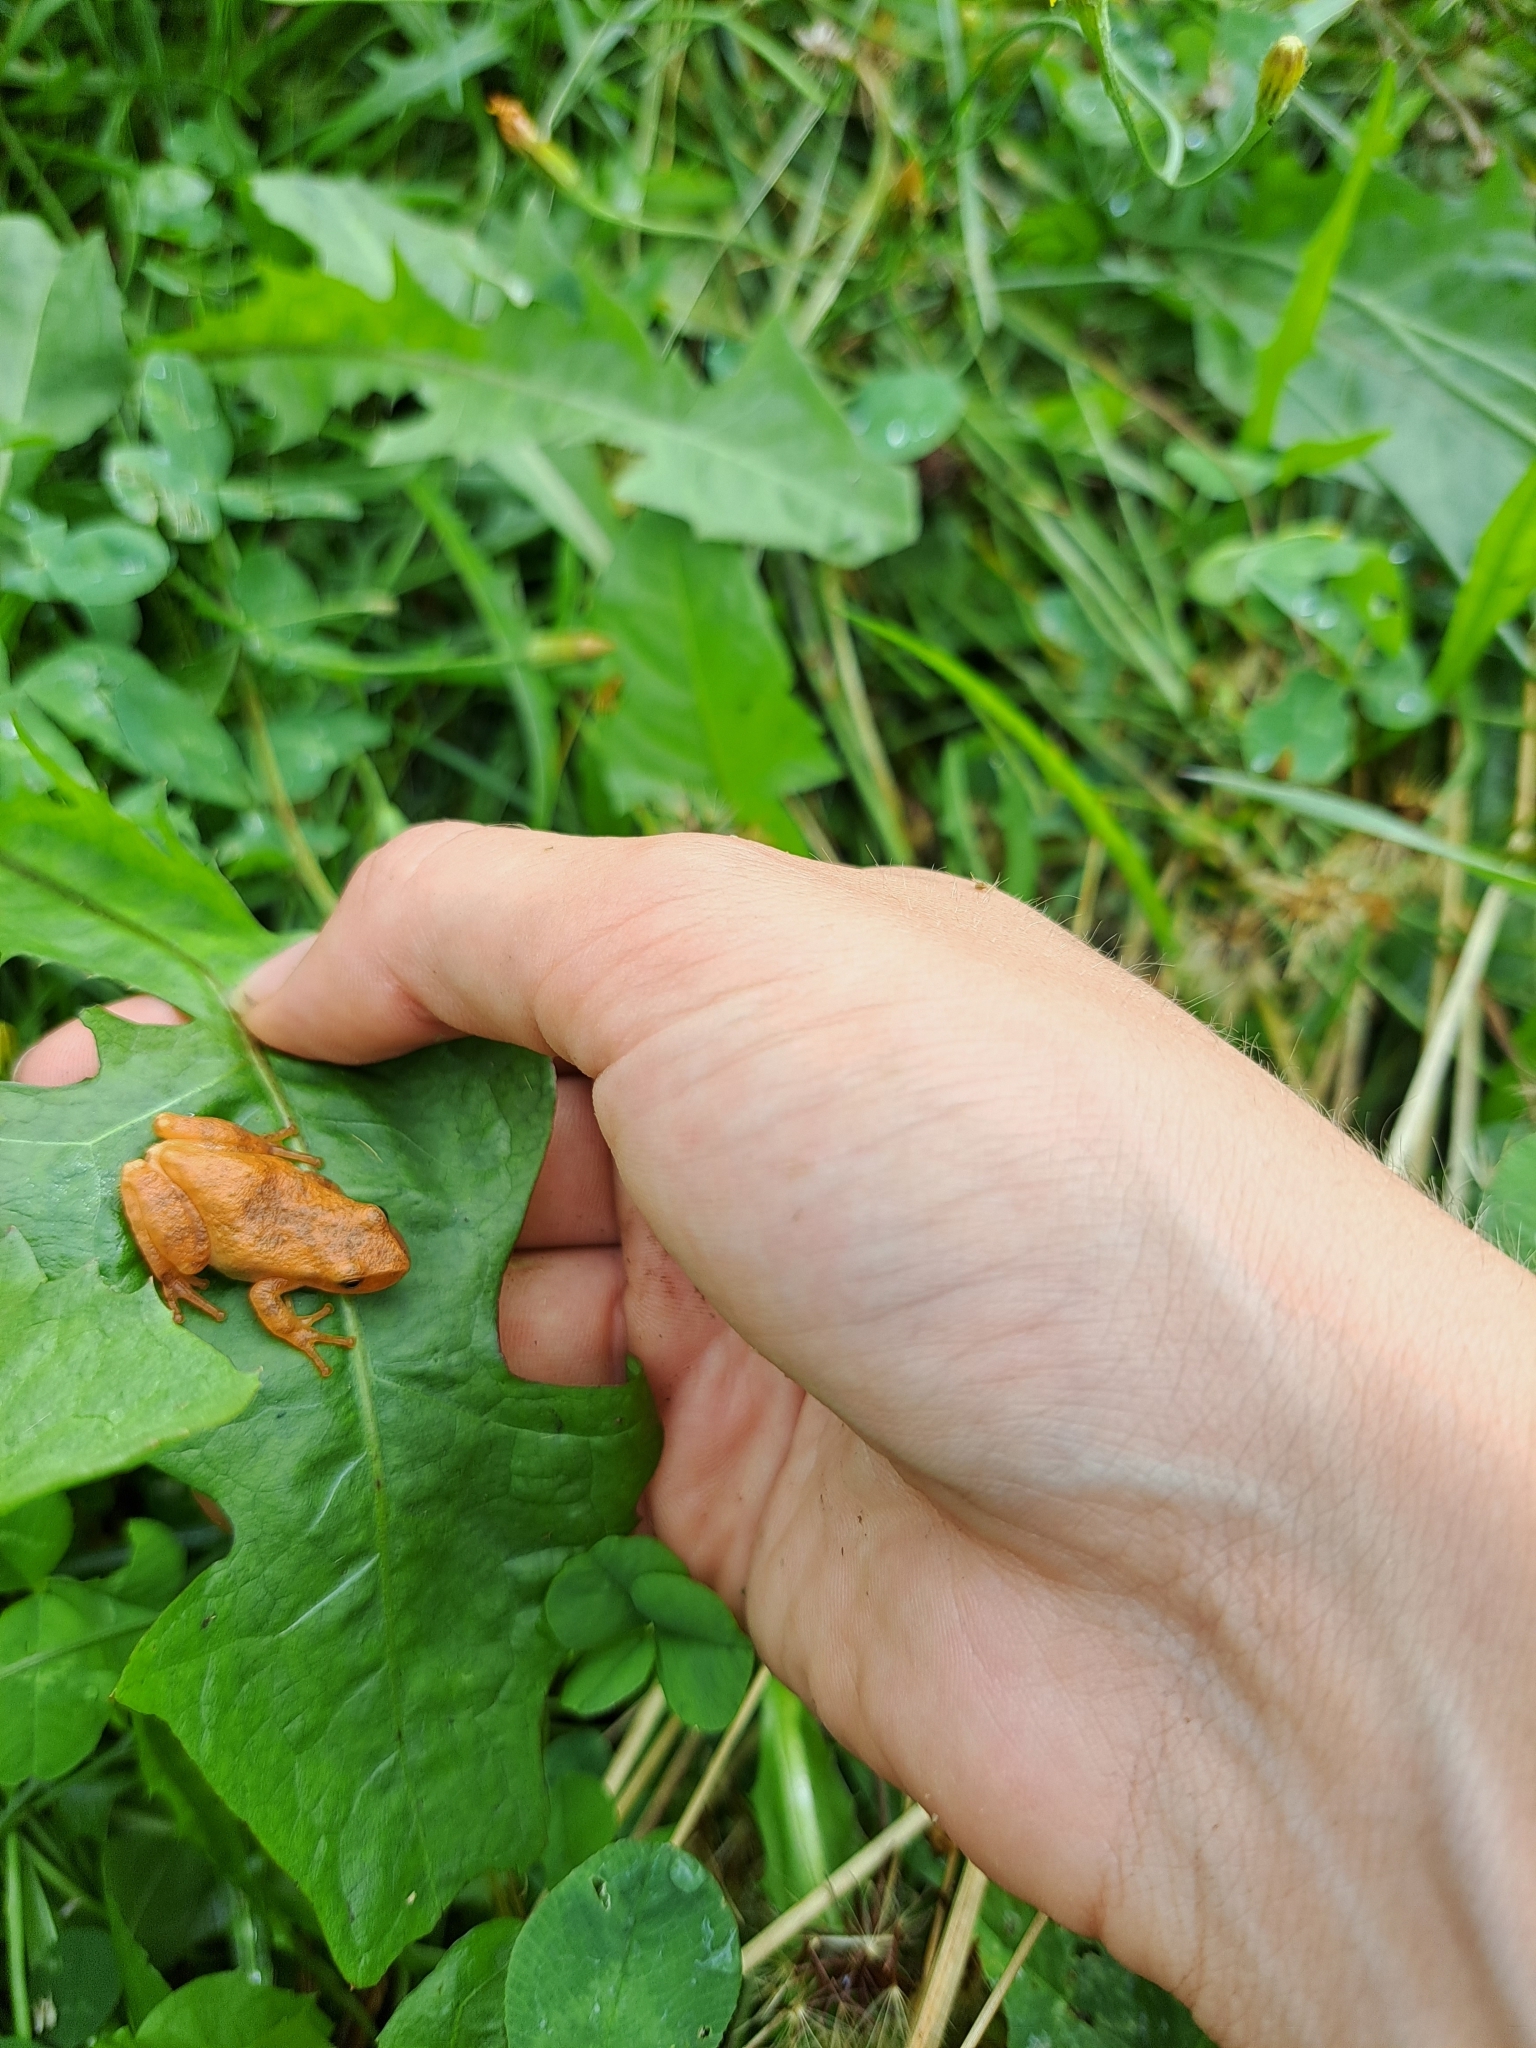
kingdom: Animalia
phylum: Chordata
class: Amphibia
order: Anura
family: Hylidae
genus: Pseudacris
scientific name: Pseudacris crucifer
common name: Spring peeper
